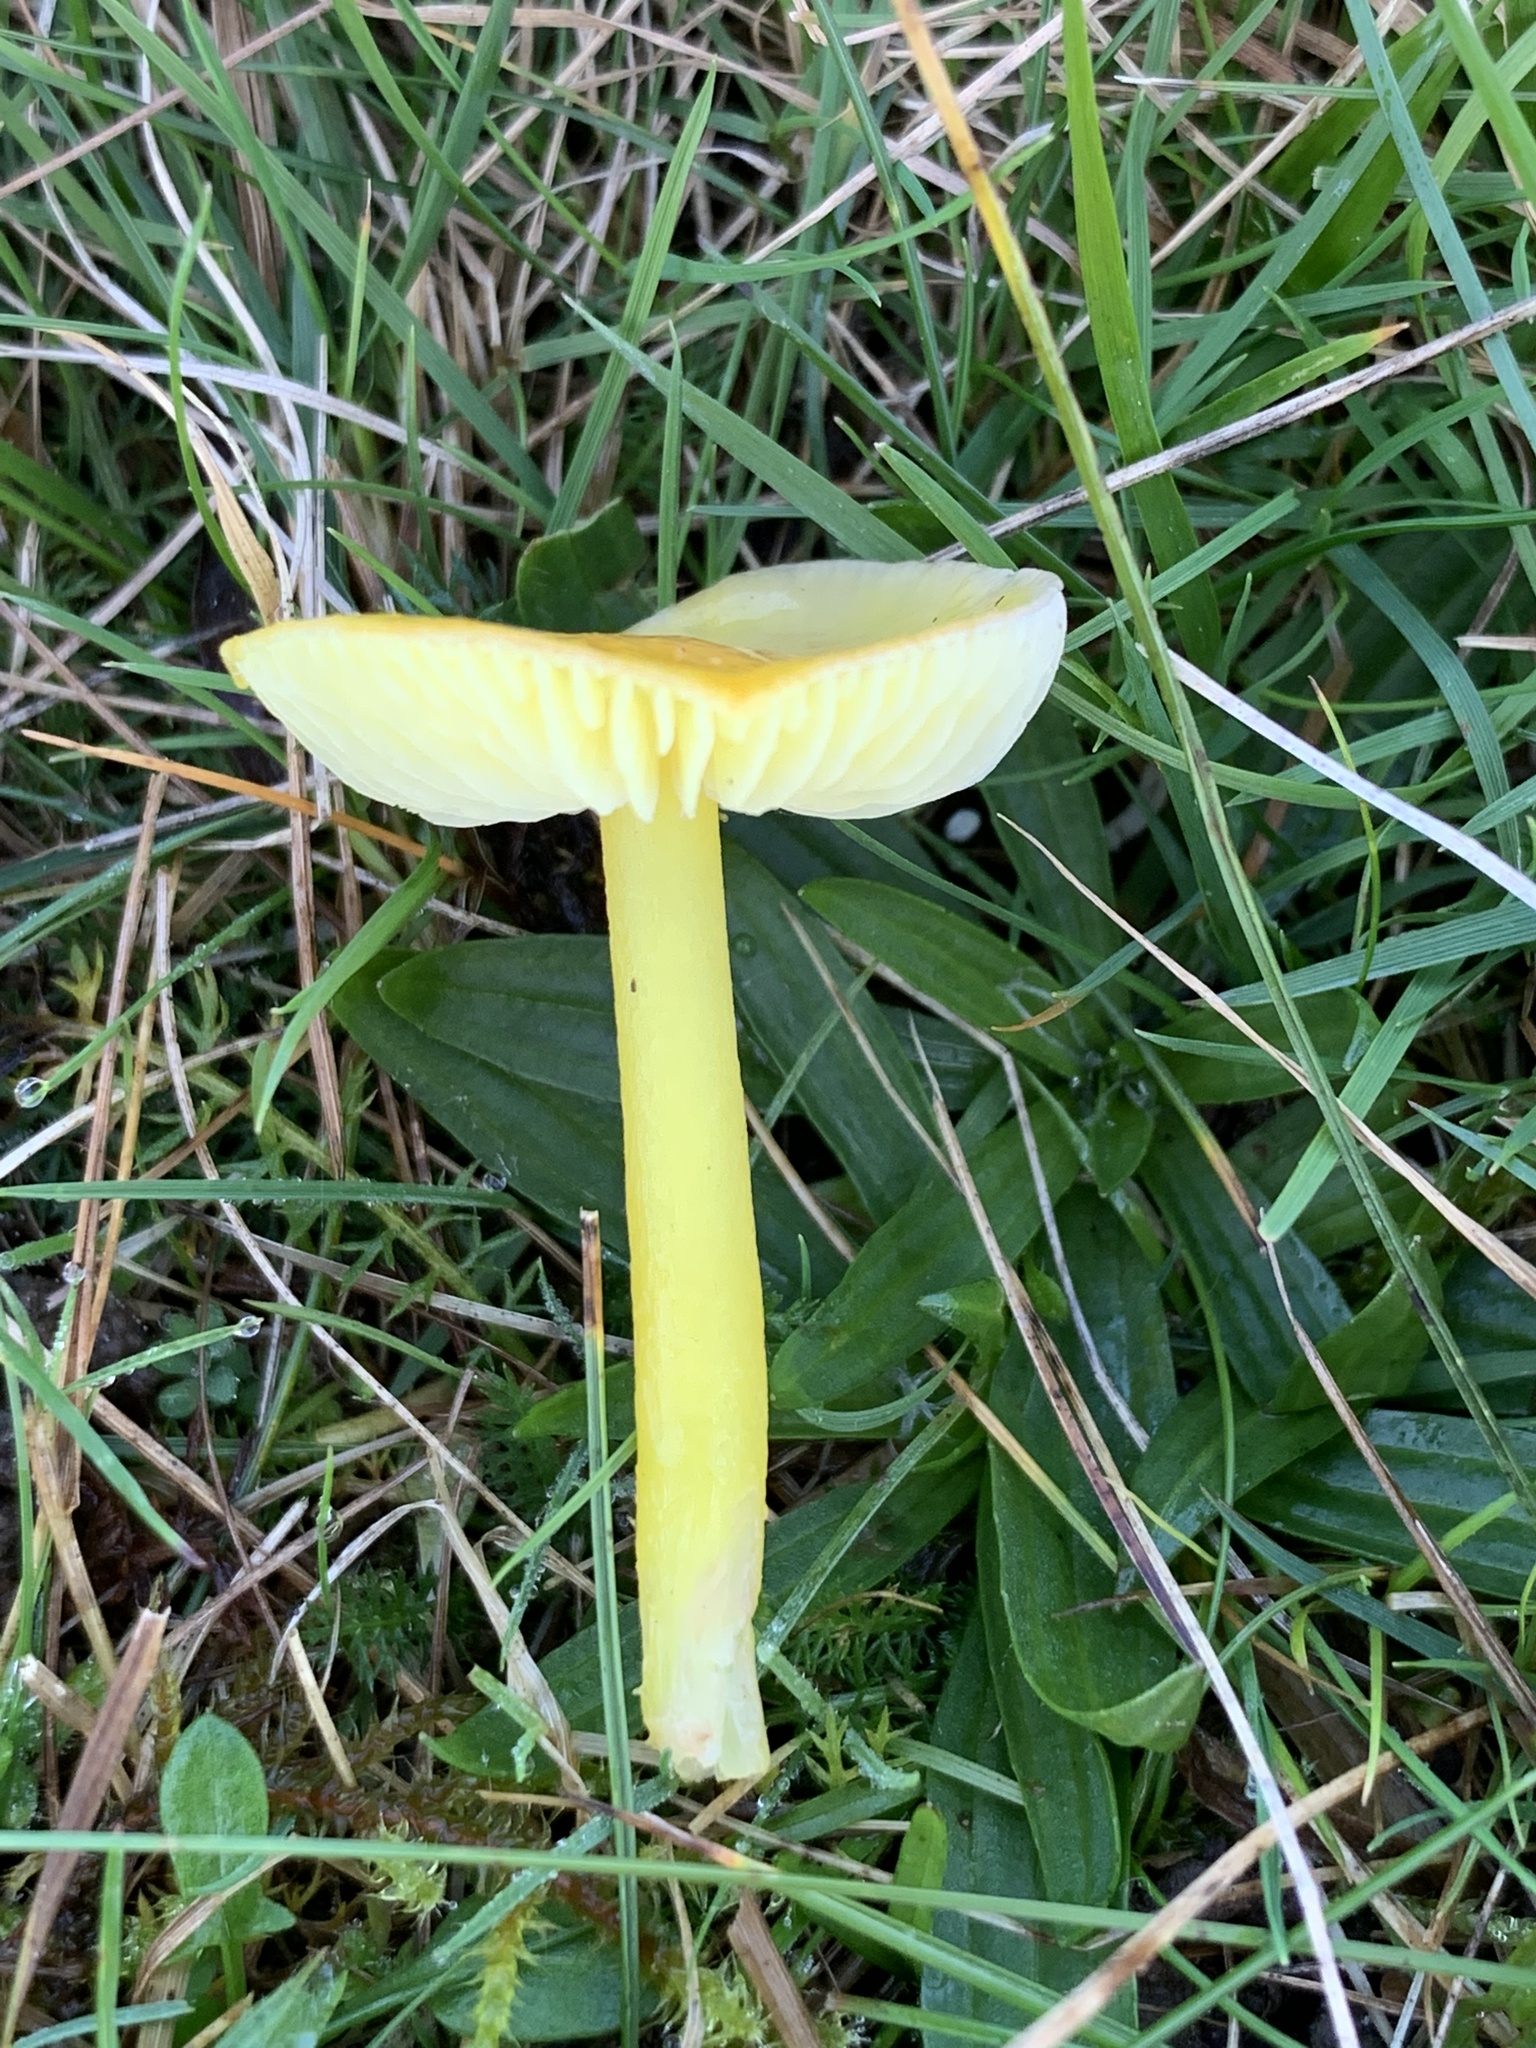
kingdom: Fungi
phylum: Basidiomycota
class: Agaricomycetes
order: Agaricales
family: Hygrophoraceae
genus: Hygrocybe
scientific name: Hygrocybe ceracea
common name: Butter waxcap
